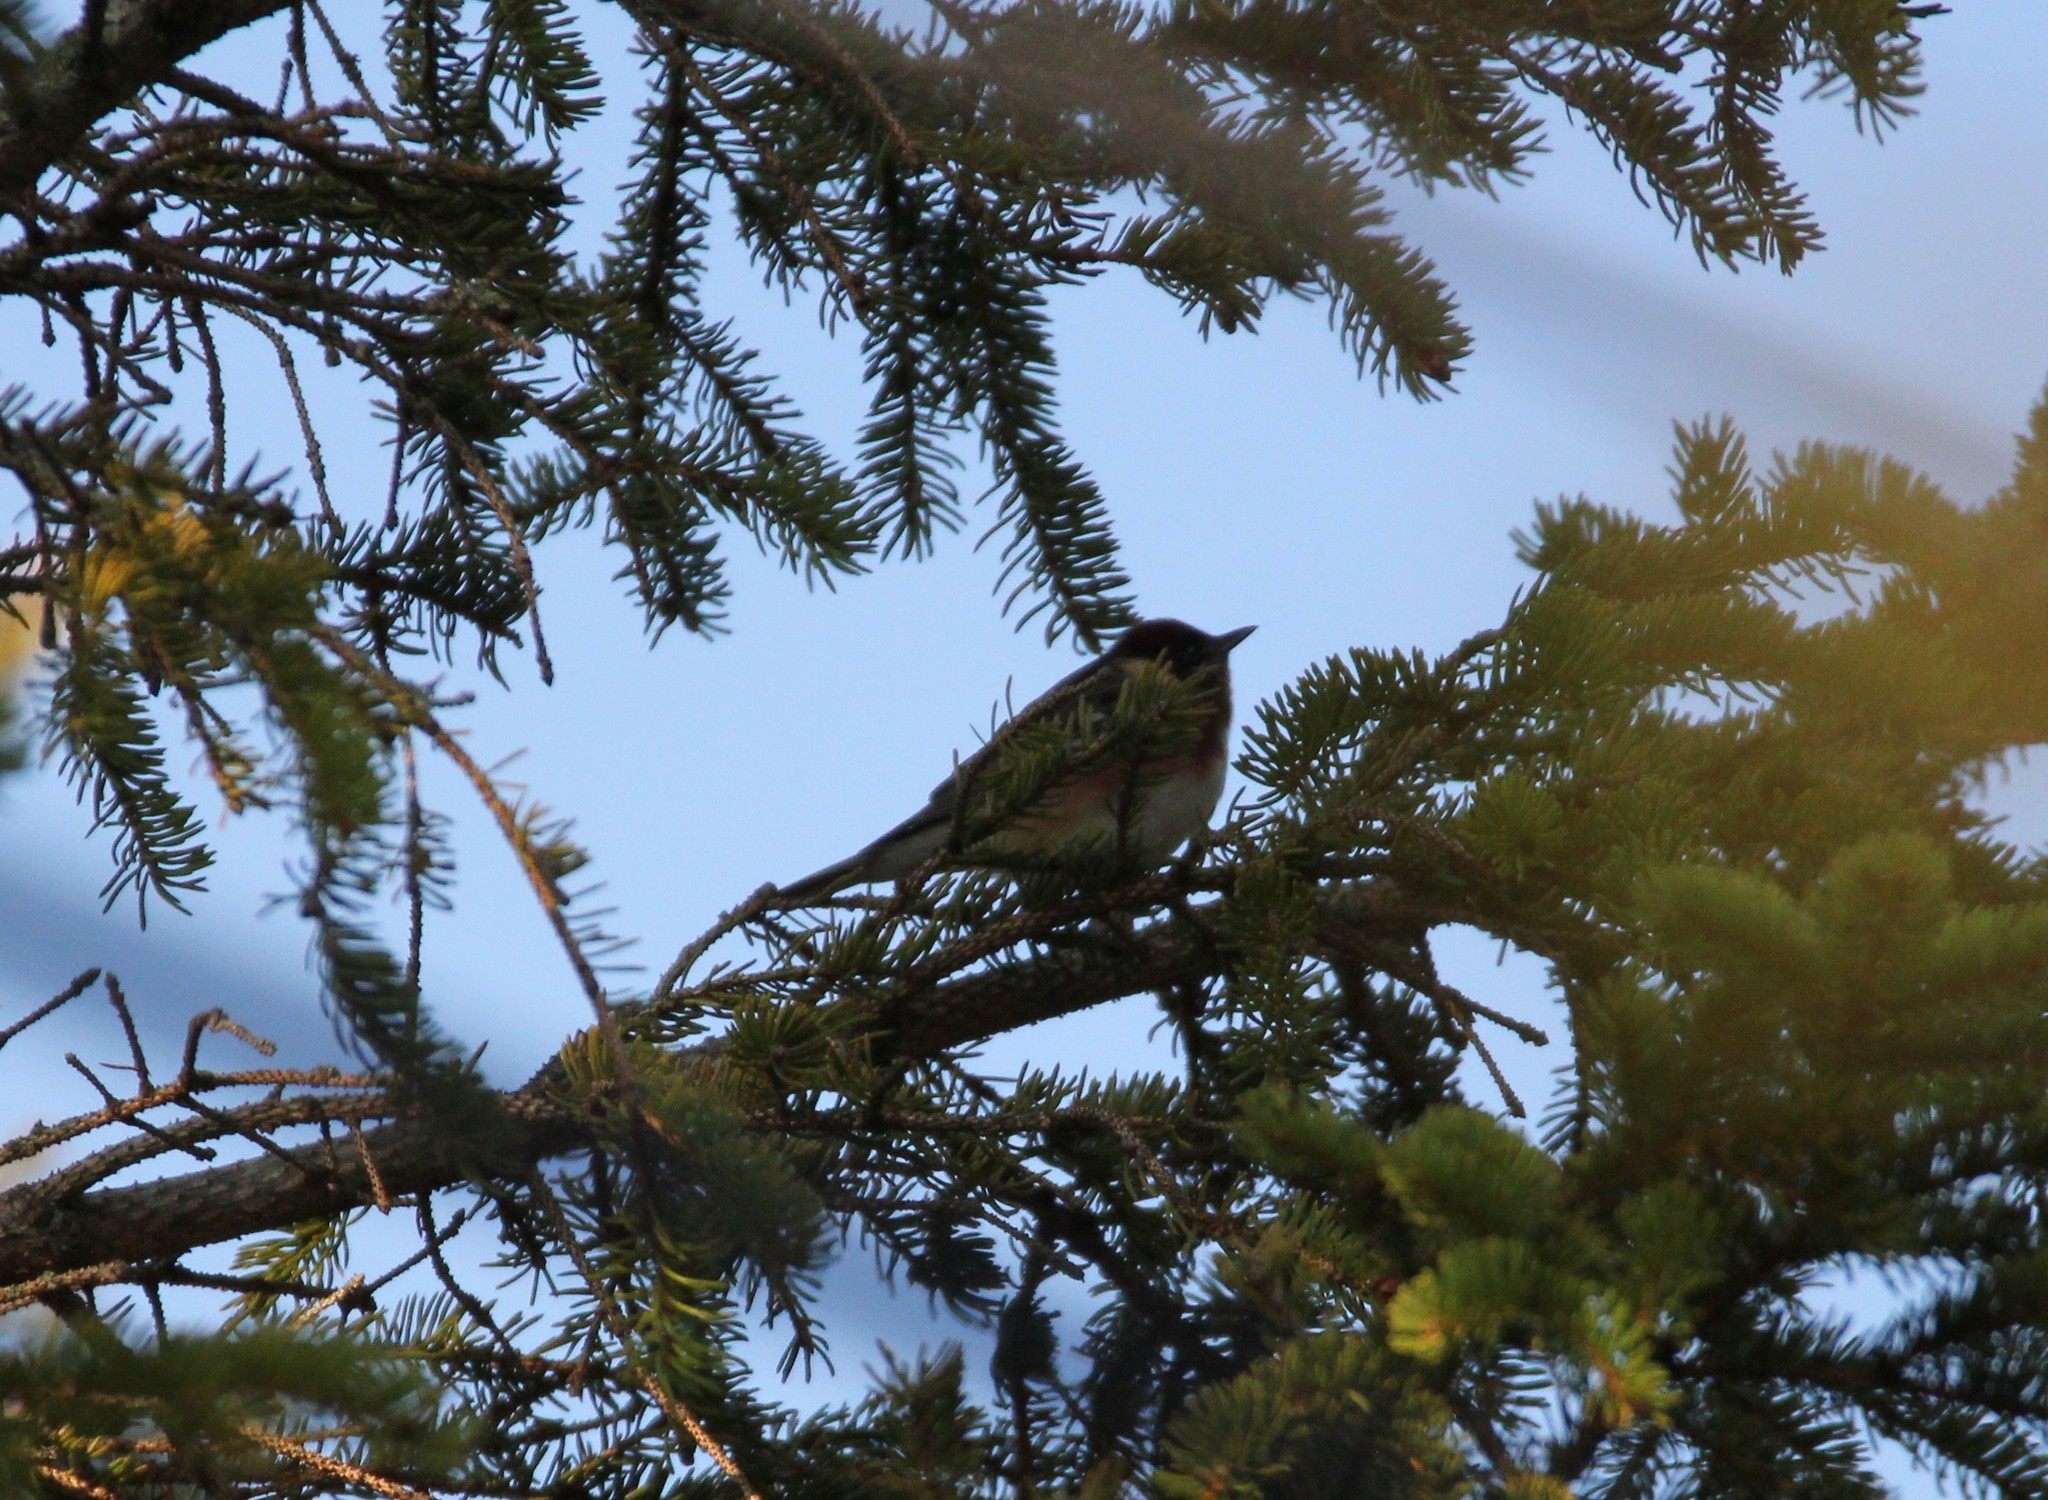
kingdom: Animalia
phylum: Chordata
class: Aves
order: Passeriformes
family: Parulidae
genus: Setophaga
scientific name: Setophaga castanea
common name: Bay-breasted warbler
